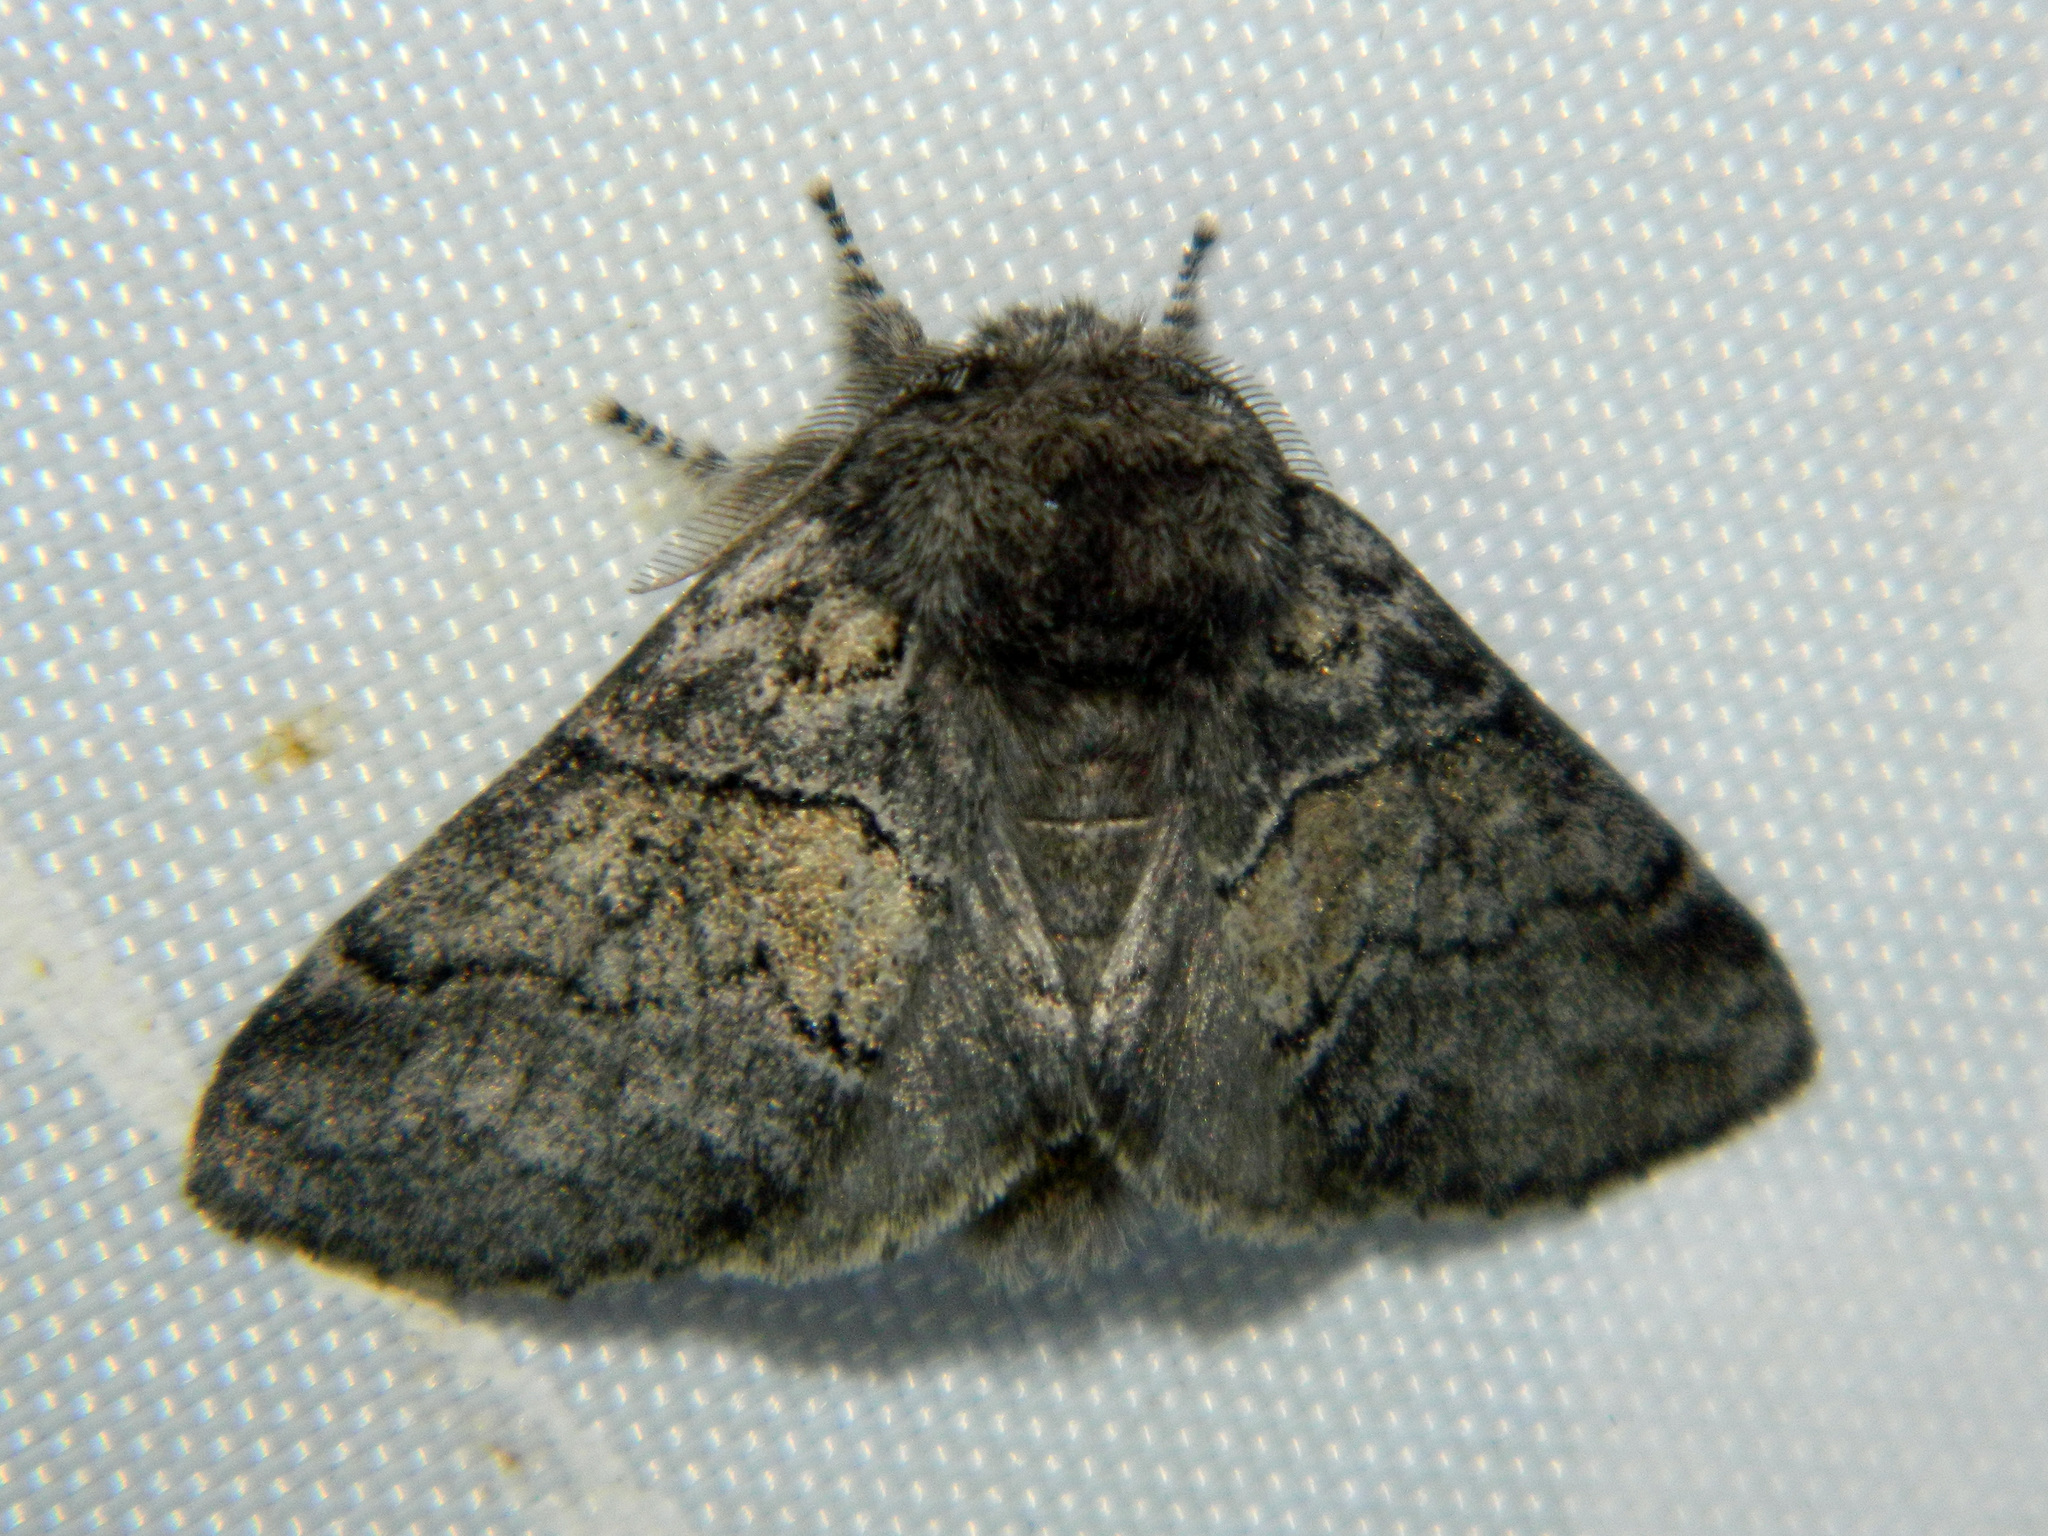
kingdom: Animalia
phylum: Arthropoda
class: Insecta
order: Lepidoptera
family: Notodontidae
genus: Gluphisia
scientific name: Gluphisia septentrionis
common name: Common gluphisia
